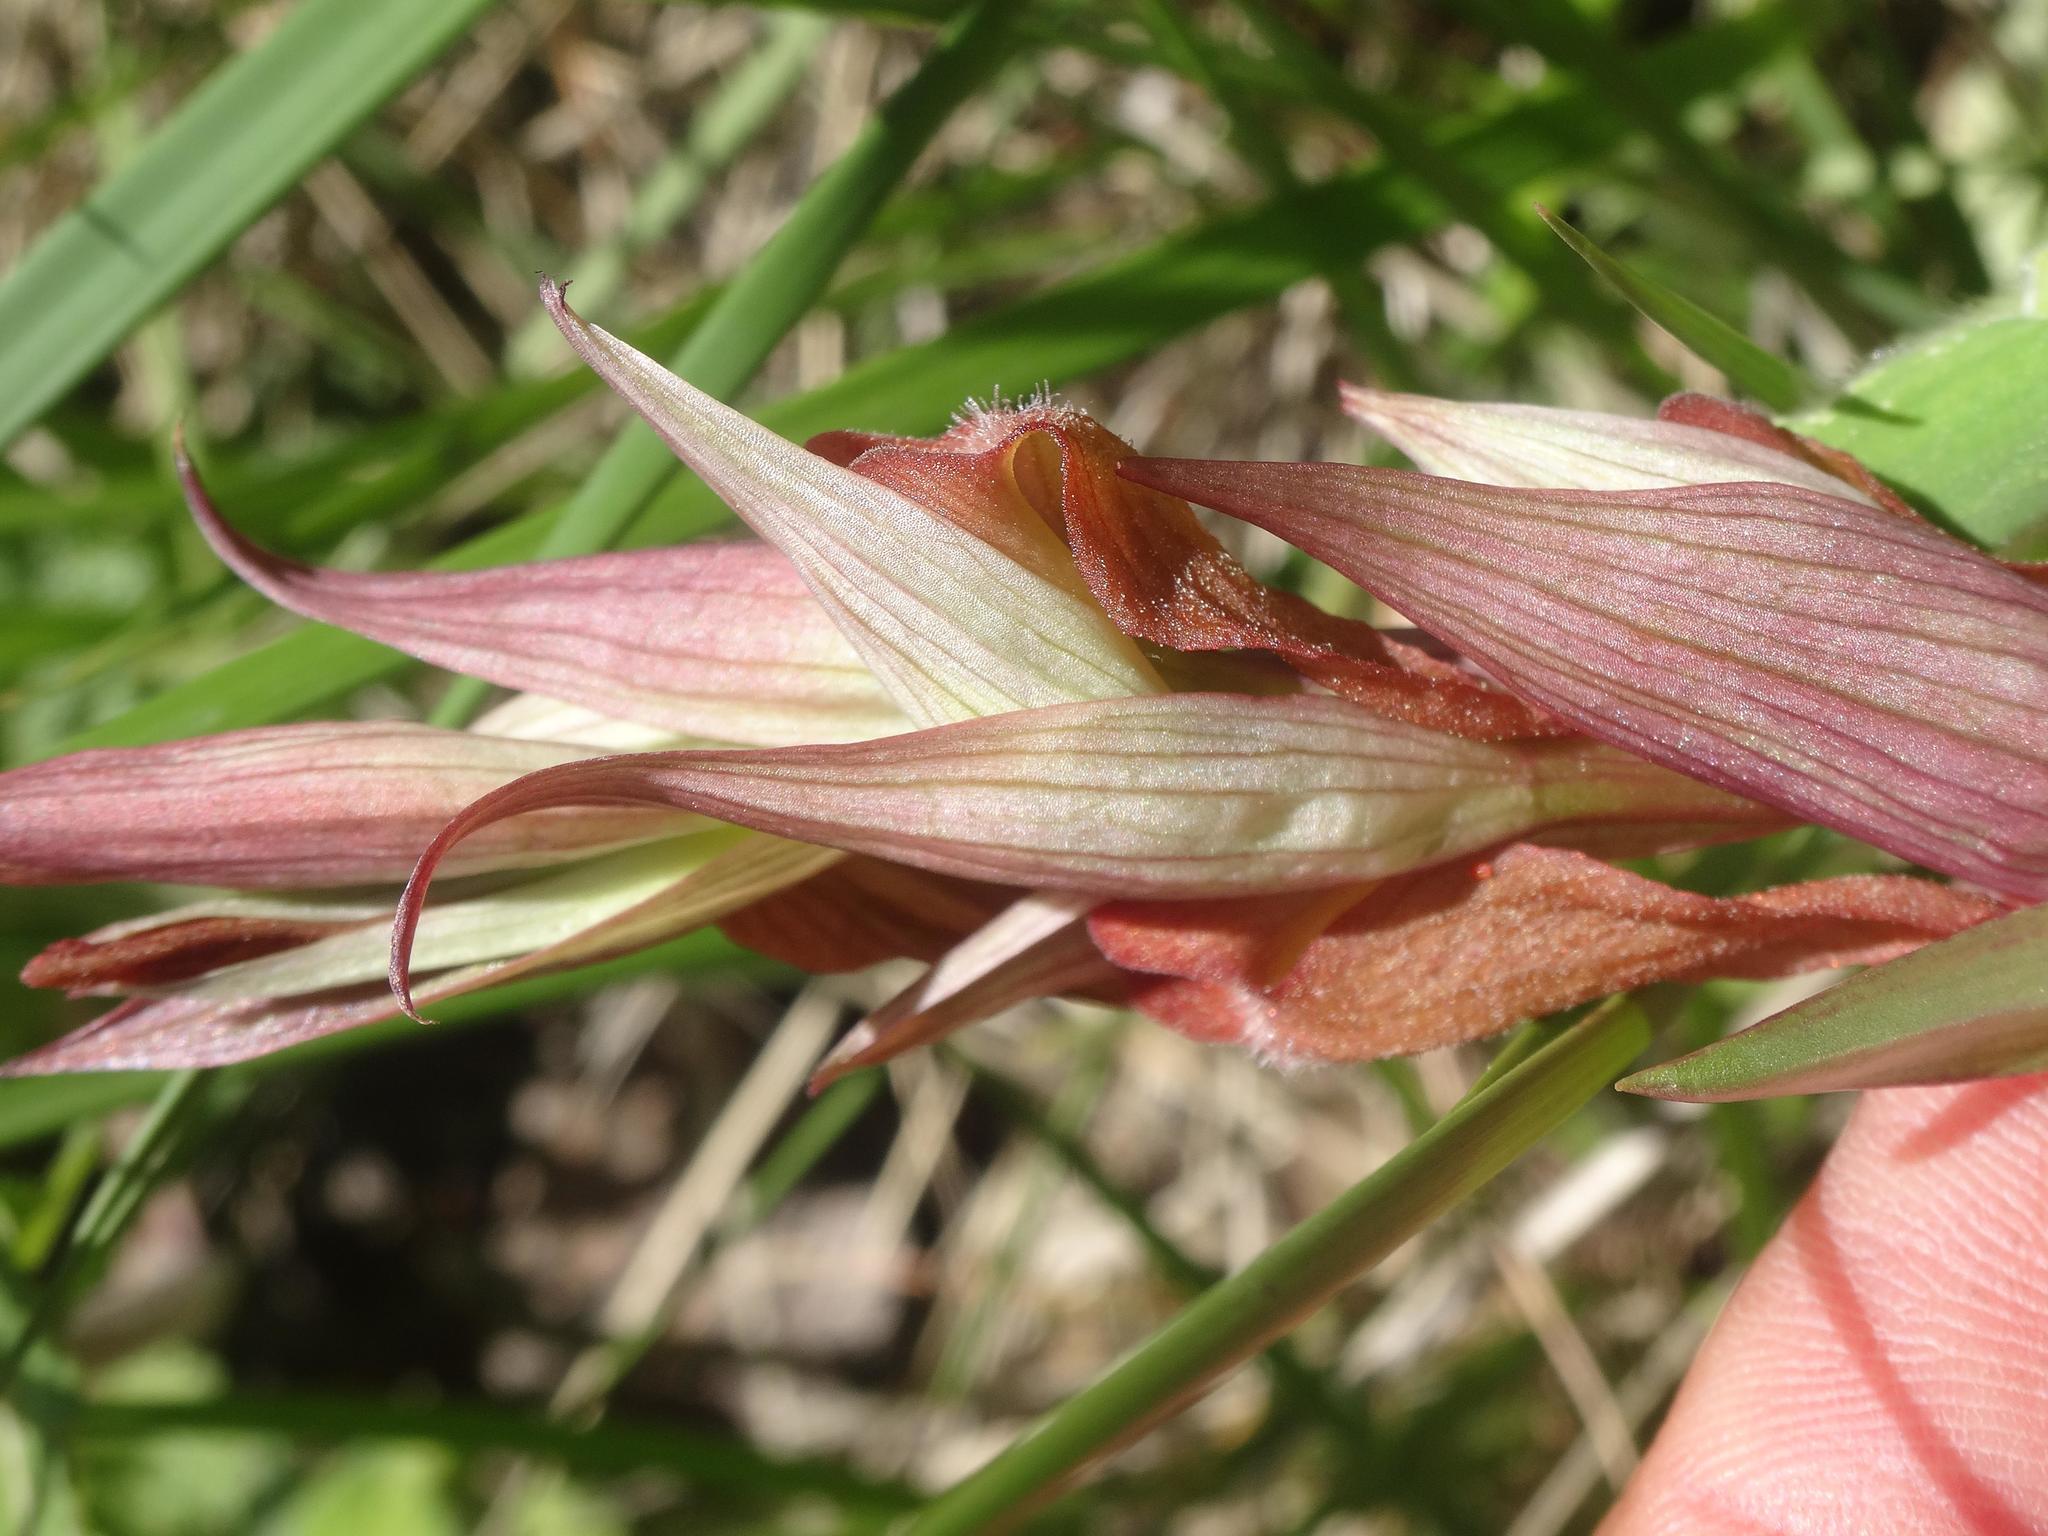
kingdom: Plantae
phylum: Tracheophyta
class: Liliopsida
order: Asparagales
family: Orchidaceae
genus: Serapias
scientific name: Serapias vomeracea
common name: Long-lipped tongue-orchid
